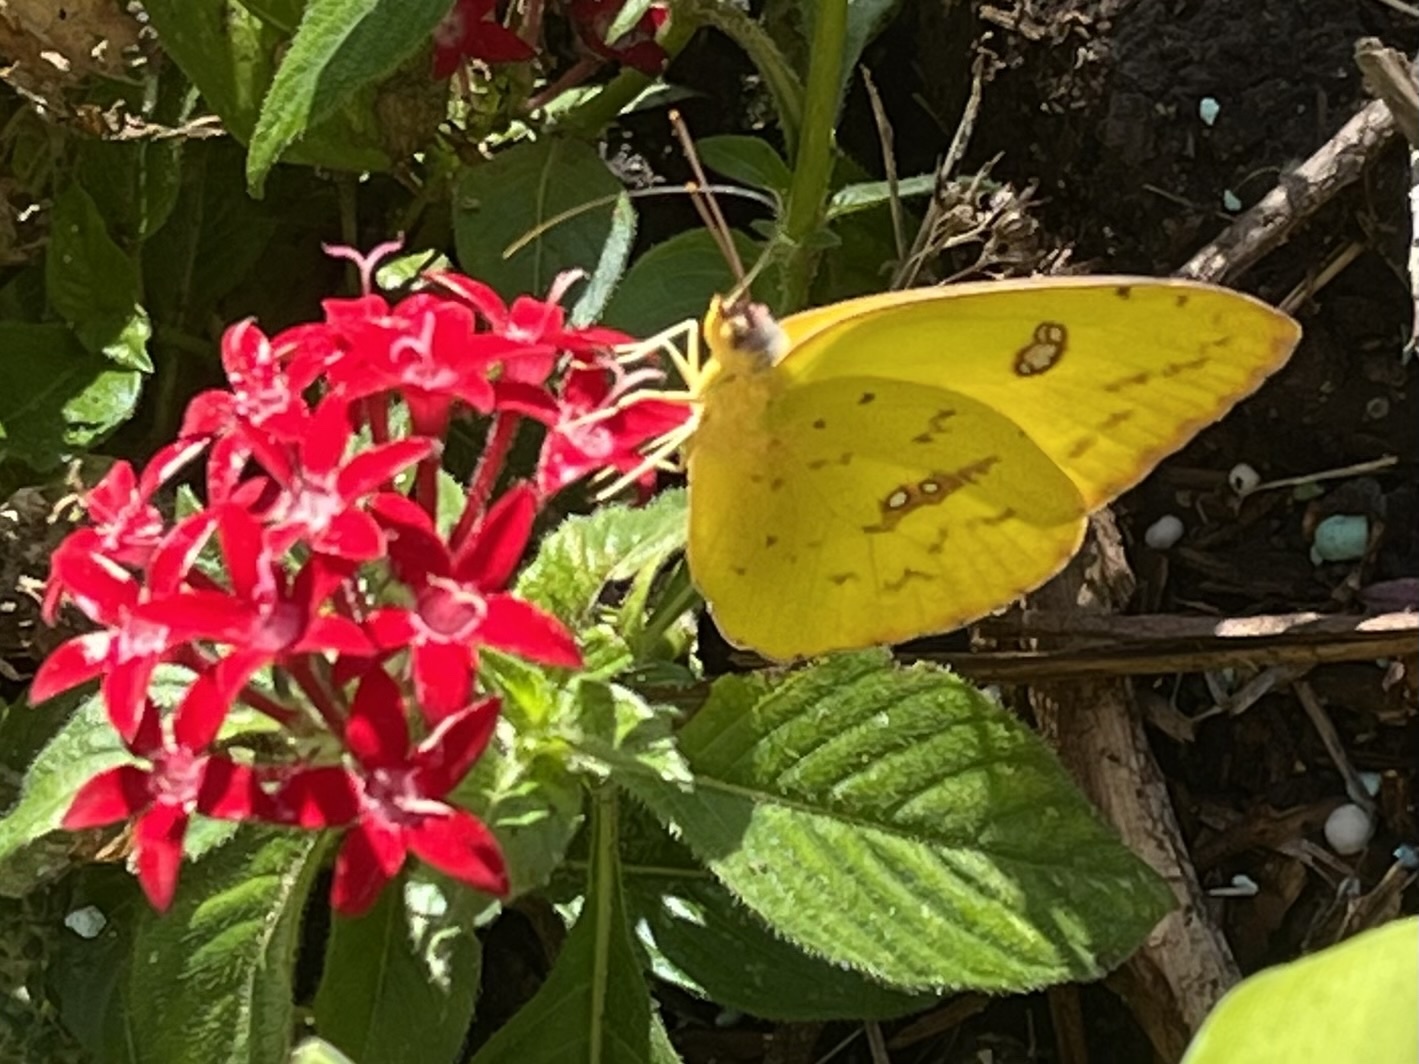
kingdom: Animalia
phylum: Arthropoda
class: Insecta
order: Lepidoptera
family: Pieridae
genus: Phoebis
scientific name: Phoebis sennae
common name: Cloudless sulphur
